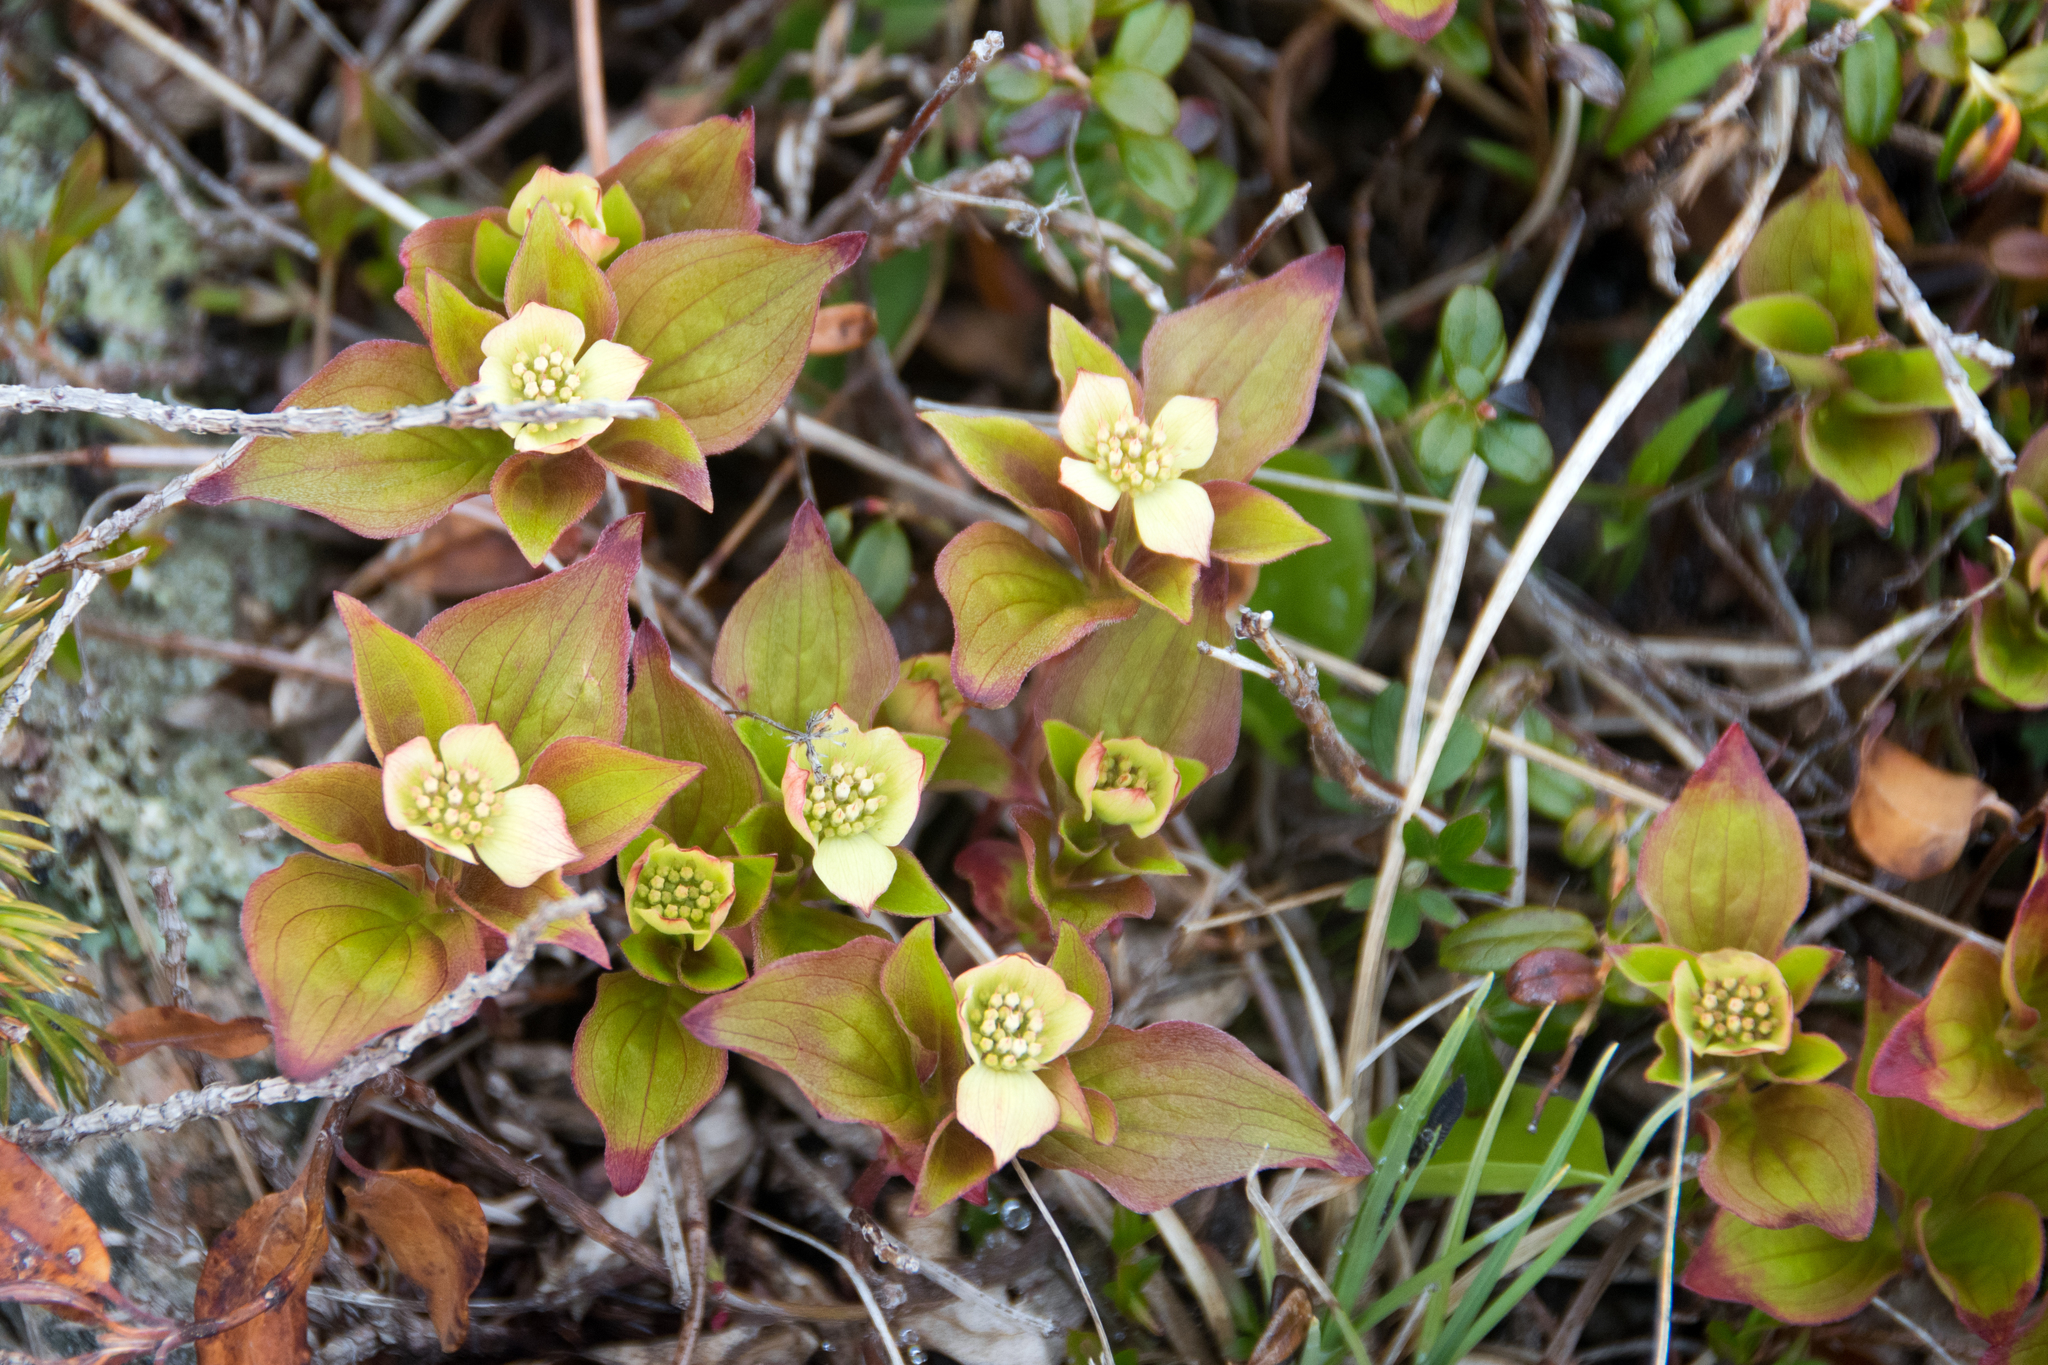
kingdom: Plantae
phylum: Tracheophyta
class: Magnoliopsida
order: Cornales
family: Cornaceae
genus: Cornus
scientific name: Cornus canadensis
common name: Creeping dogwood
